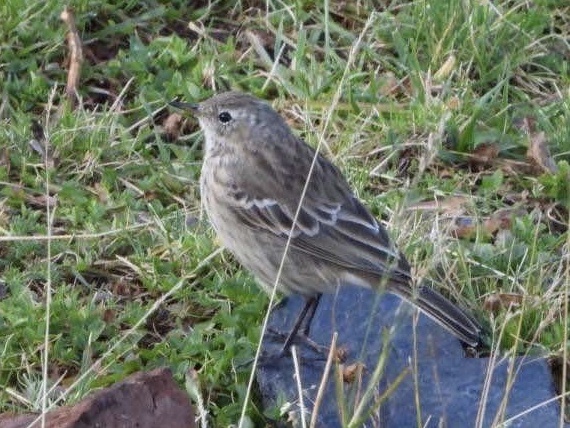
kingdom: Animalia
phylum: Chordata
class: Aves
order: Passeriformes
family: Motacillidae
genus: Anthus
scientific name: Anthus spinoletta
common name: Water pipit
